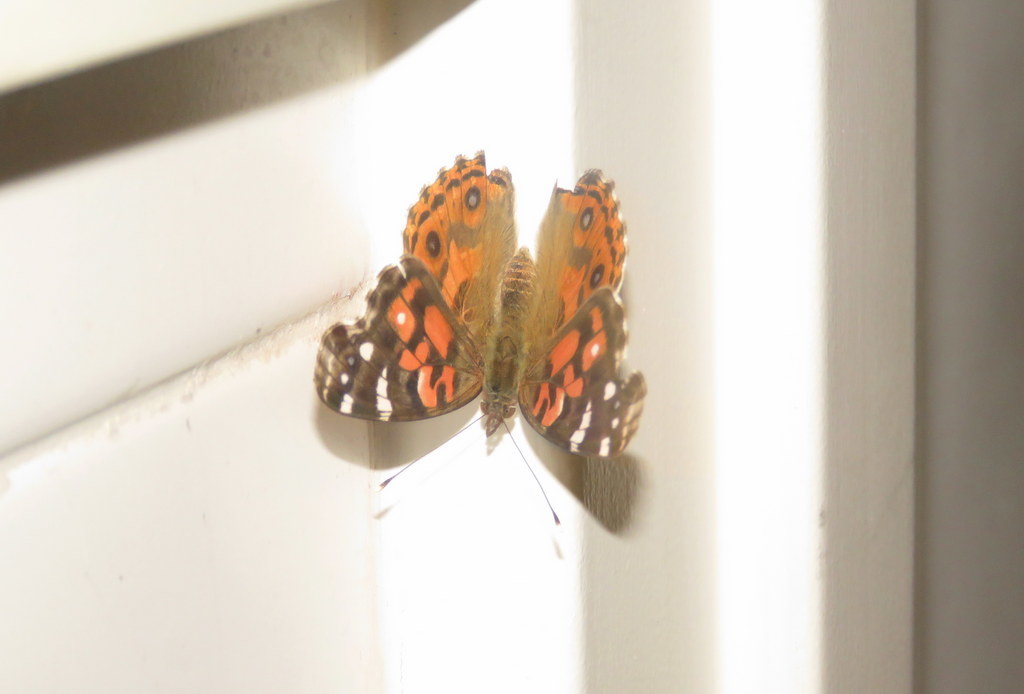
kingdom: Animalia
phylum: Arthropoda
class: Insecta
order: Lepidoptera
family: Nymphalidae
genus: Vanessa
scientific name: Vanessa braziliensis
